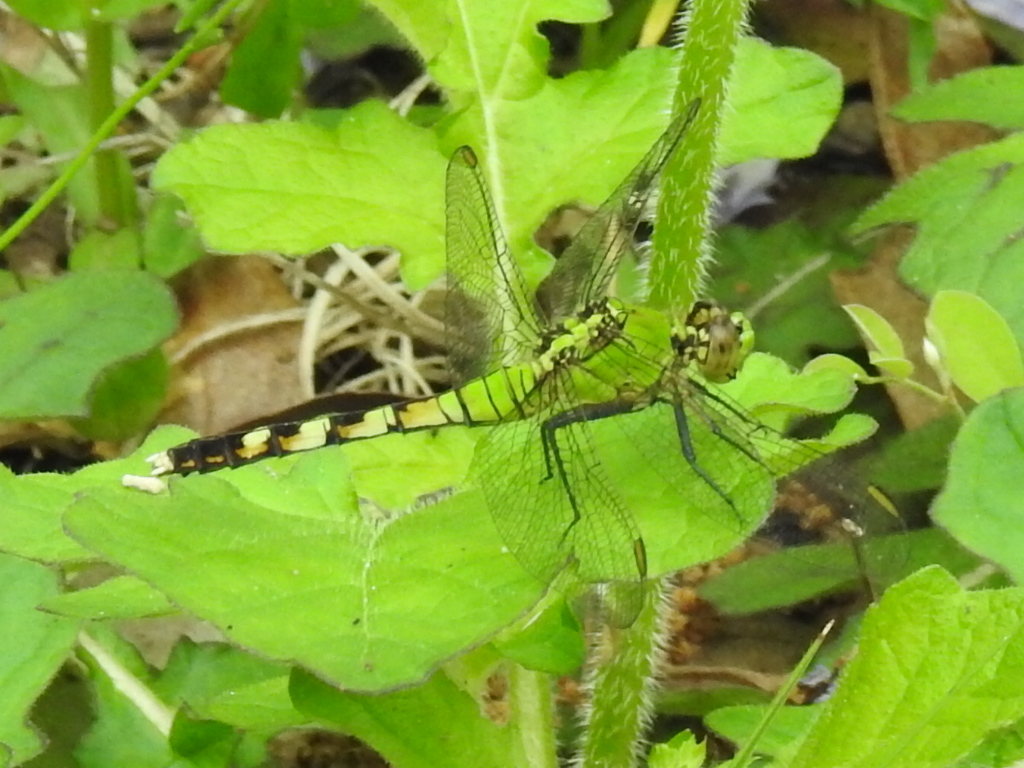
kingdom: Animalia
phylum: Arthropoda
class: Insecta
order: Odonata
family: Libellulidae
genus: Erythemis
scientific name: Erythemis simplicicollis
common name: Eastern pondhawk
